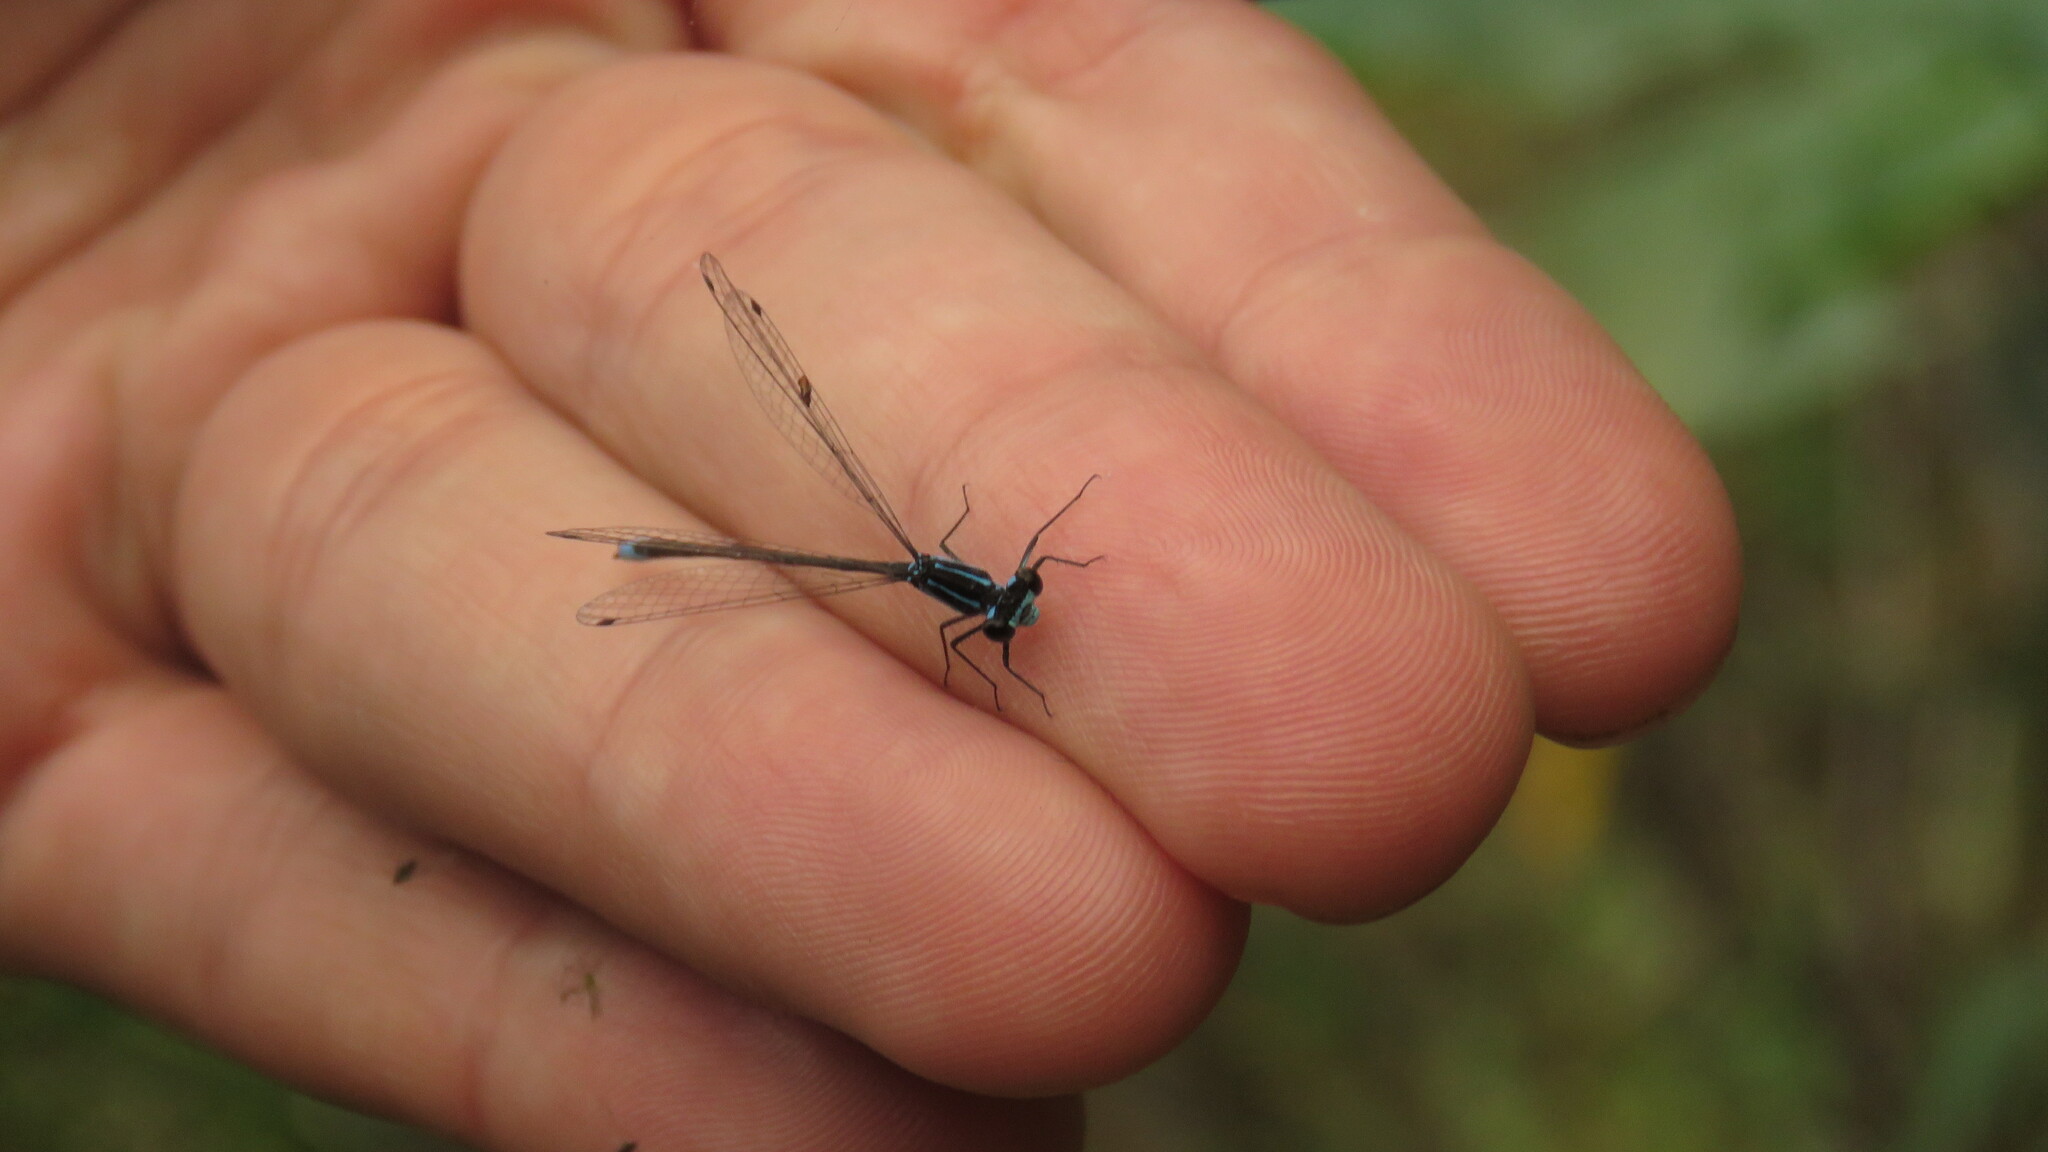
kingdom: Animalia
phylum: Arthropoda
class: Insecta
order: Odonata
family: Coenagrionidae
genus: Homeoura
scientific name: Homeoura chelifera
